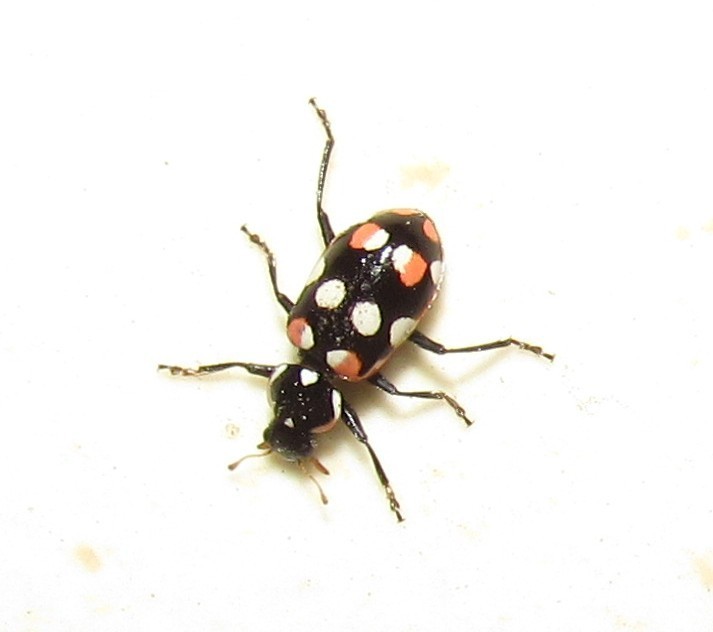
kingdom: Animalia
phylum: Arthropoda
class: Insecta
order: Coleoptera
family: Coccinellidae
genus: Eriopis
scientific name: Eriopis connexa
